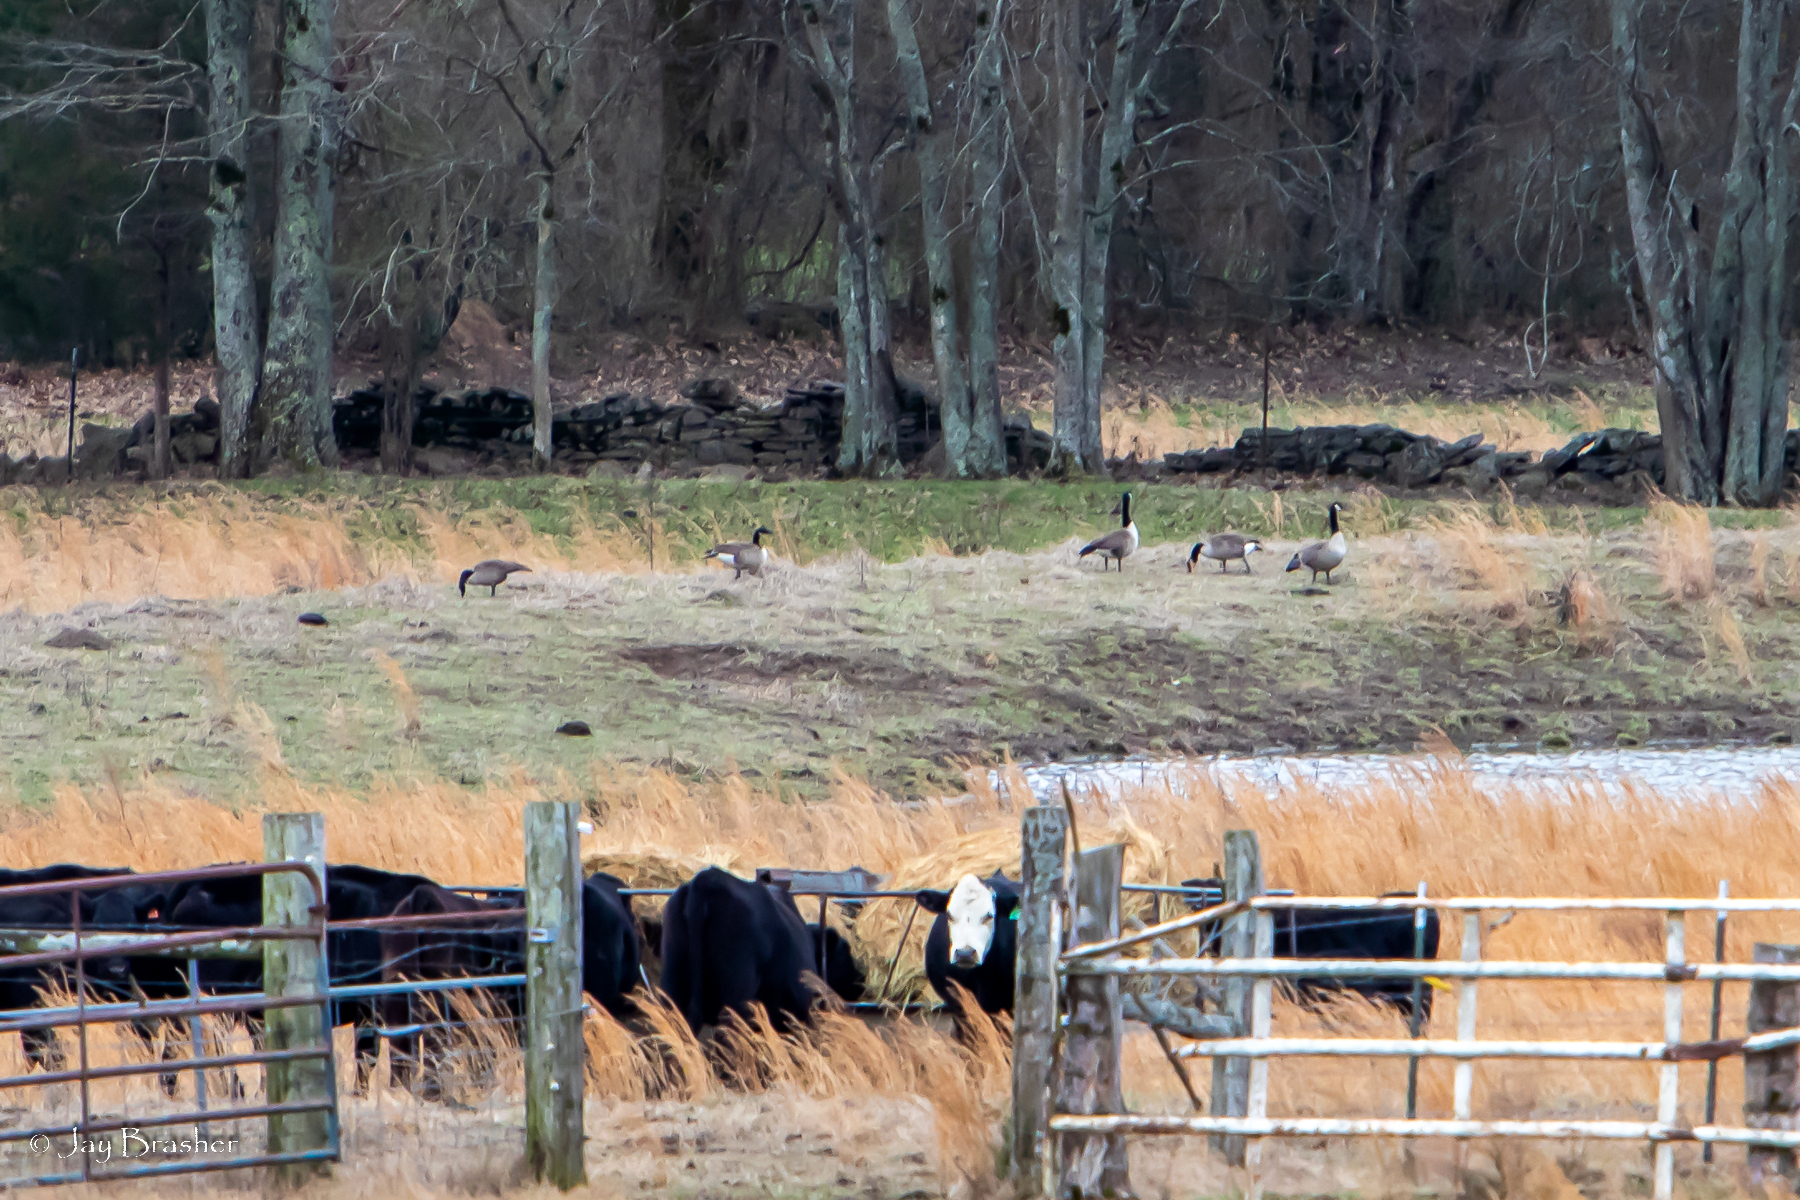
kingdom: Animalia
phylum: Chordata
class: Aves
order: Anseriformes
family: Anatidae
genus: Branta
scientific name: Branta canadensis
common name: Canada goose
